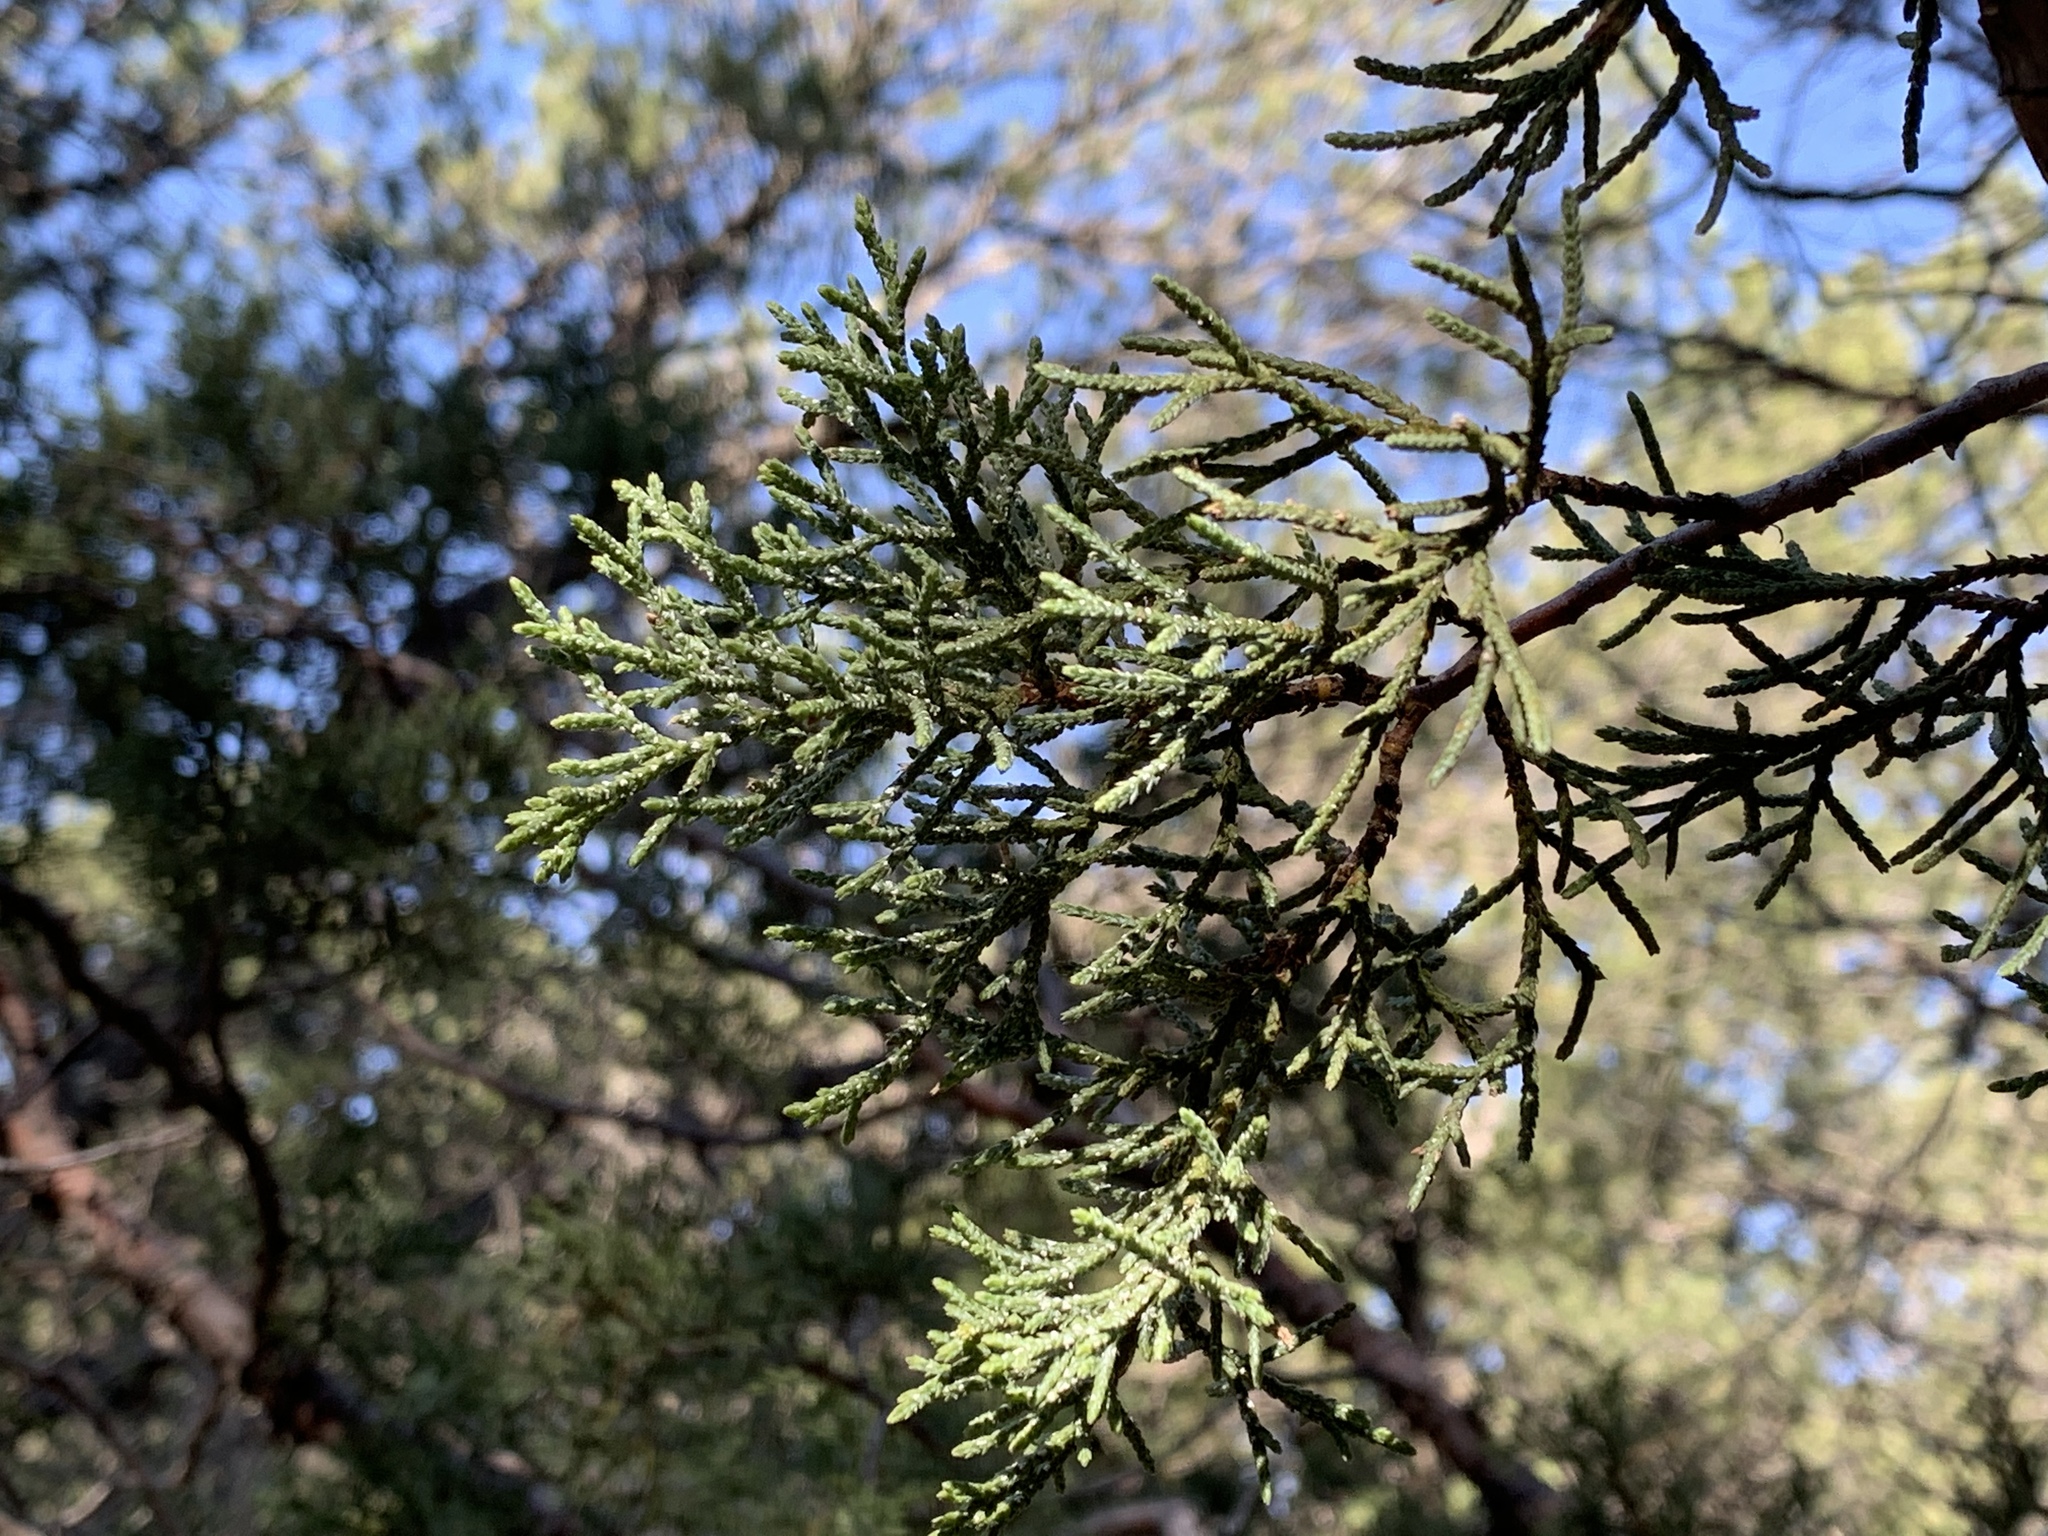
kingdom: Plantae
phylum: Tracheophyta
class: Pinopsida
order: Pinales
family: Cupressaceae
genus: Juniperus
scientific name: Juniperus deppeana
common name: Alligator juniper
